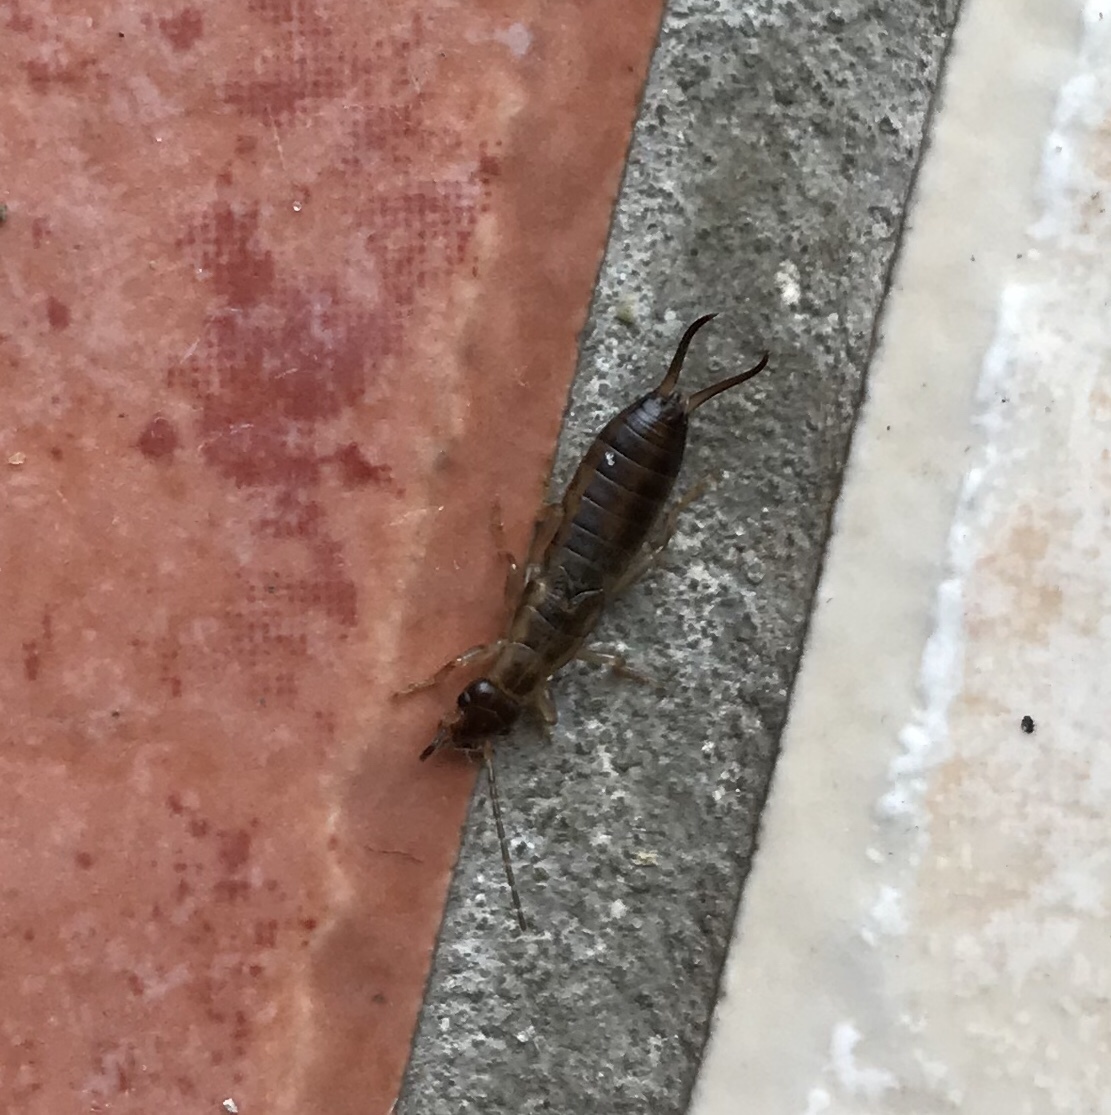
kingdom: Animalia
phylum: Arthropoda
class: Insecta
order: Dermaptera
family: Forficulidae
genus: Forficula
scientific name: Forficula
